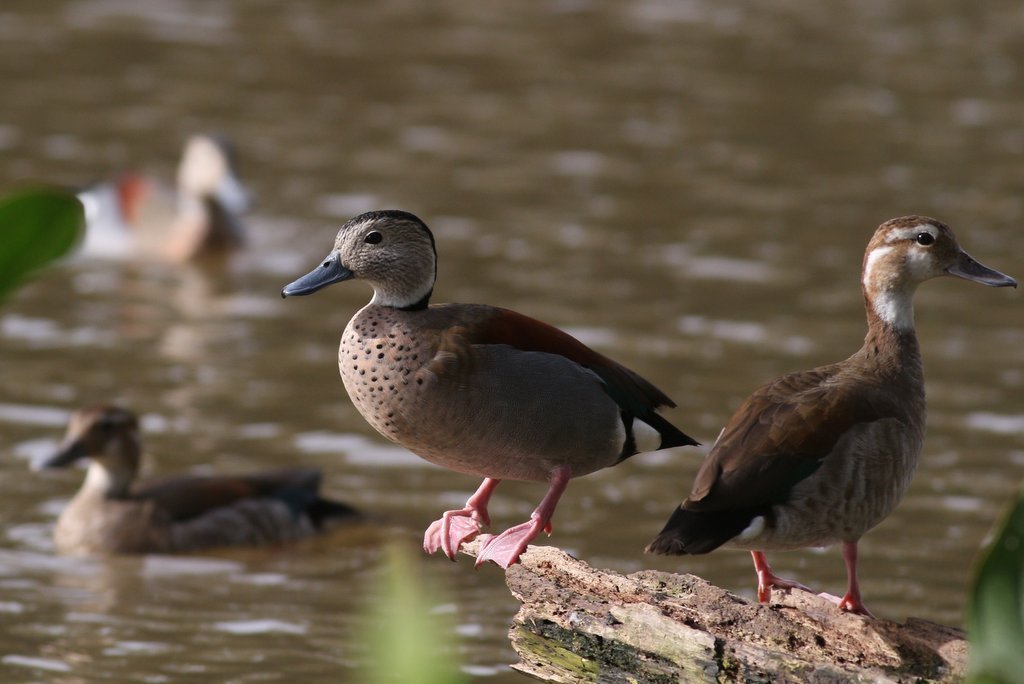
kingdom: Animalia
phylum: Chordata
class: Aves
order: Anseriformes
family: Anatidae
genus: Callonetta
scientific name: Callonetta leucophrys
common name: Ringed teal
